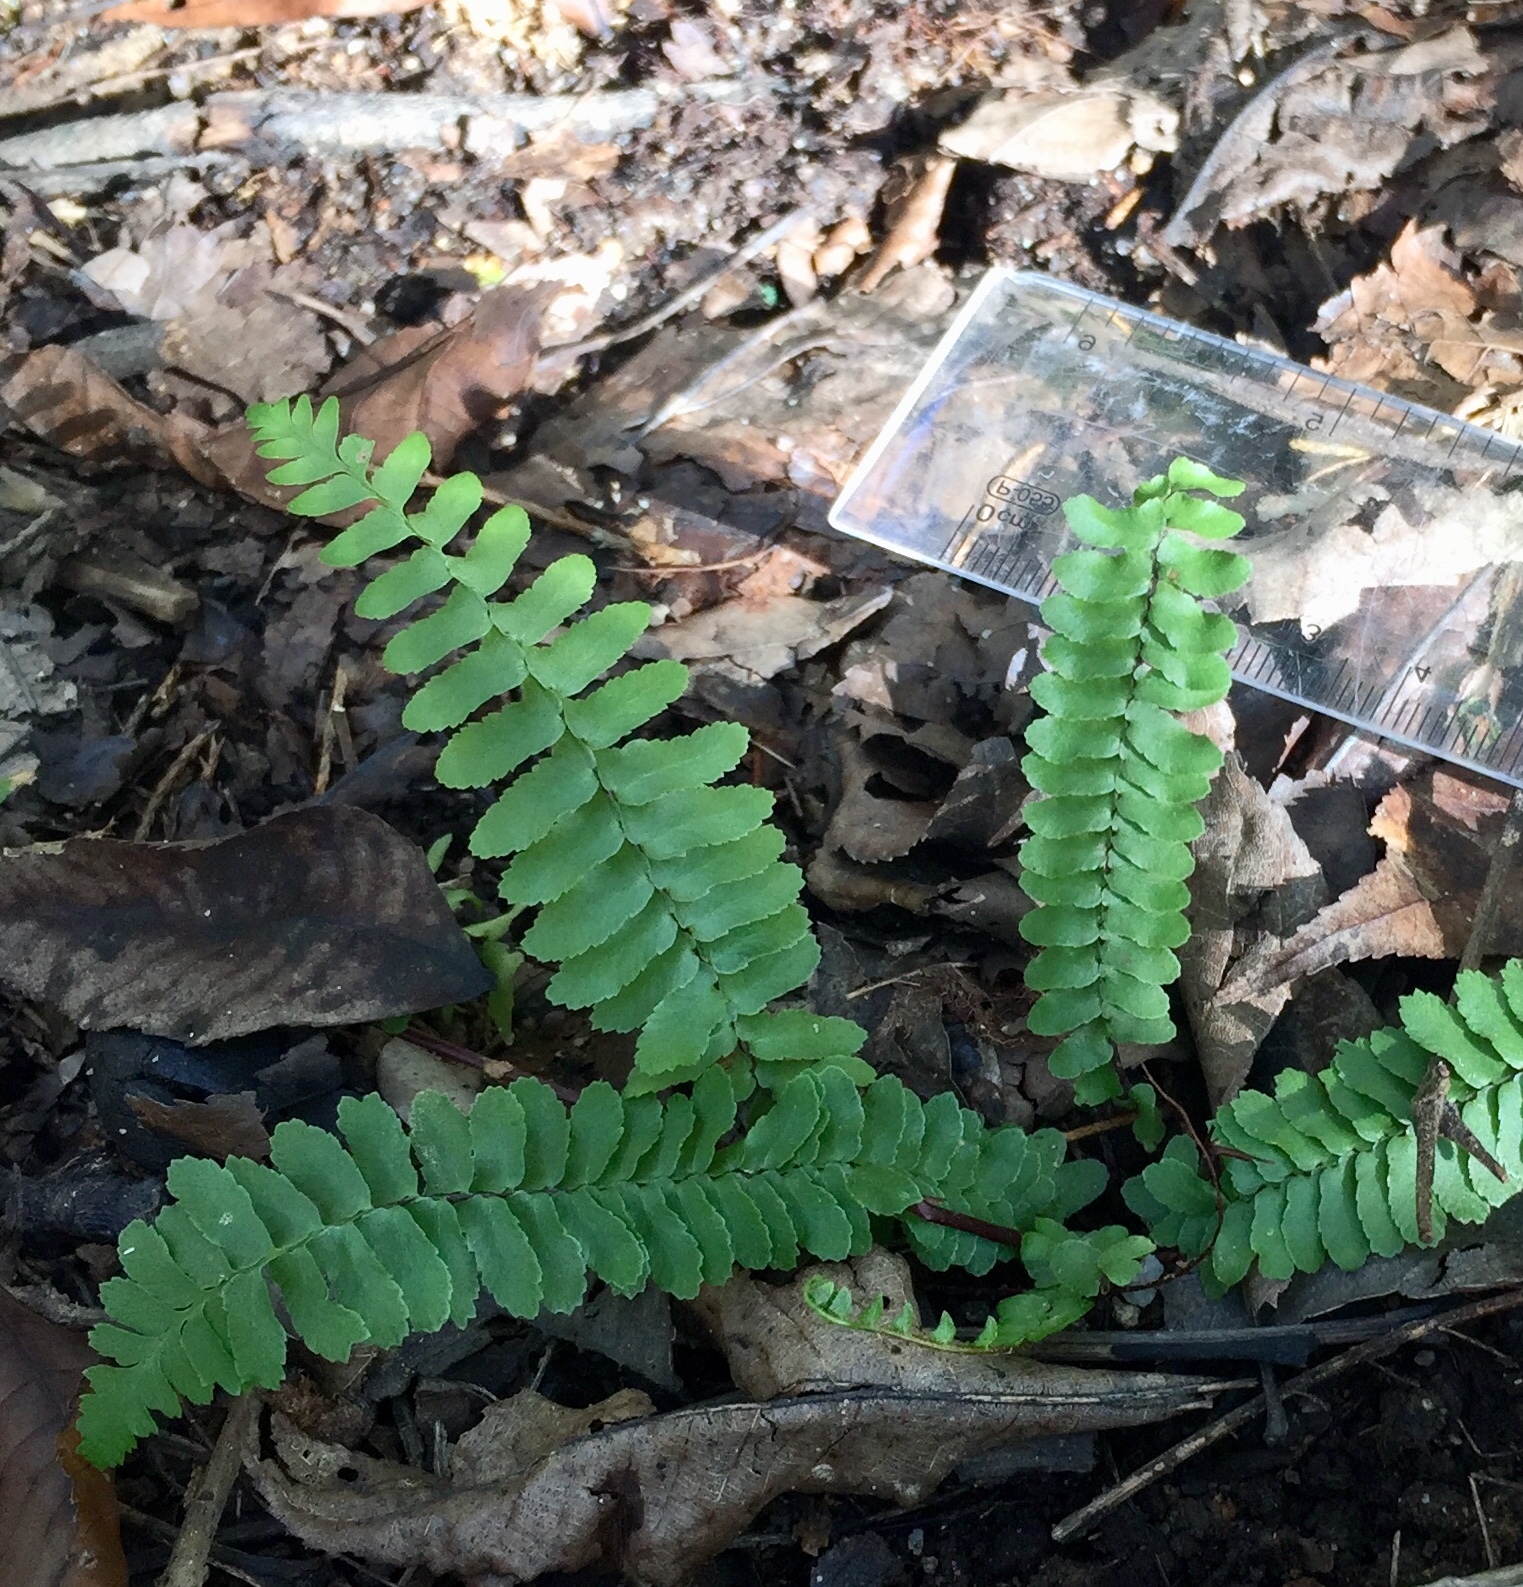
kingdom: Plantae
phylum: Tracheophyta
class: Polypodiopsida
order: Polypodiales
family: Aspleniaceae
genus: Asplenium
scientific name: Asplenium platyneuron
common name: Ebony spleenwort
